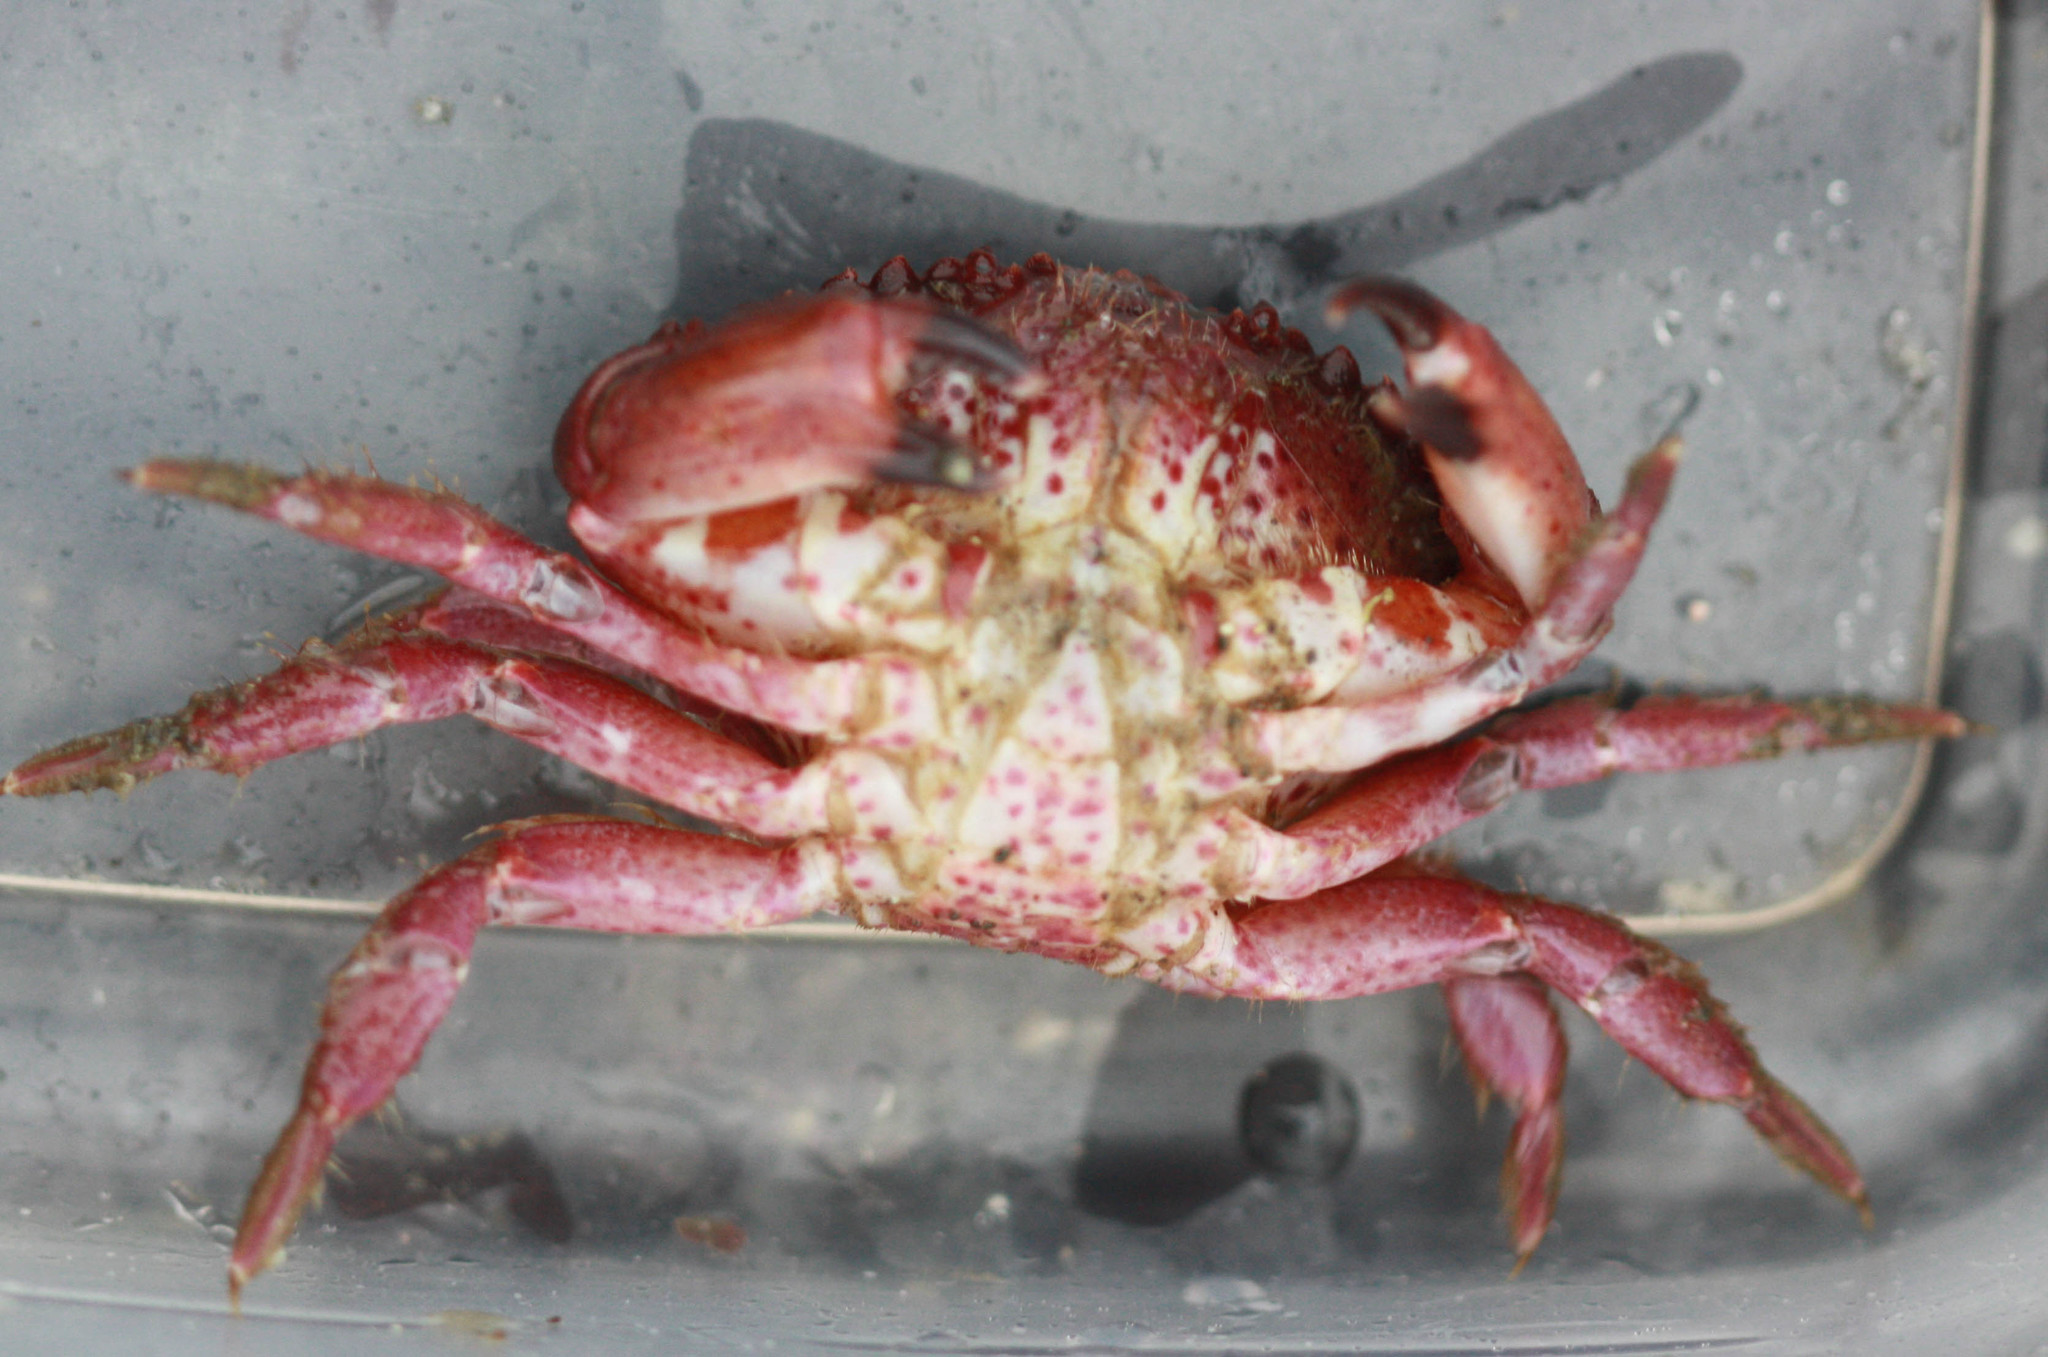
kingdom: Animalia
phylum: Arthropoda
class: Malacostraca
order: Decapoda
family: Cancridae
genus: Romaleon
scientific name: Romaleon antennarium
